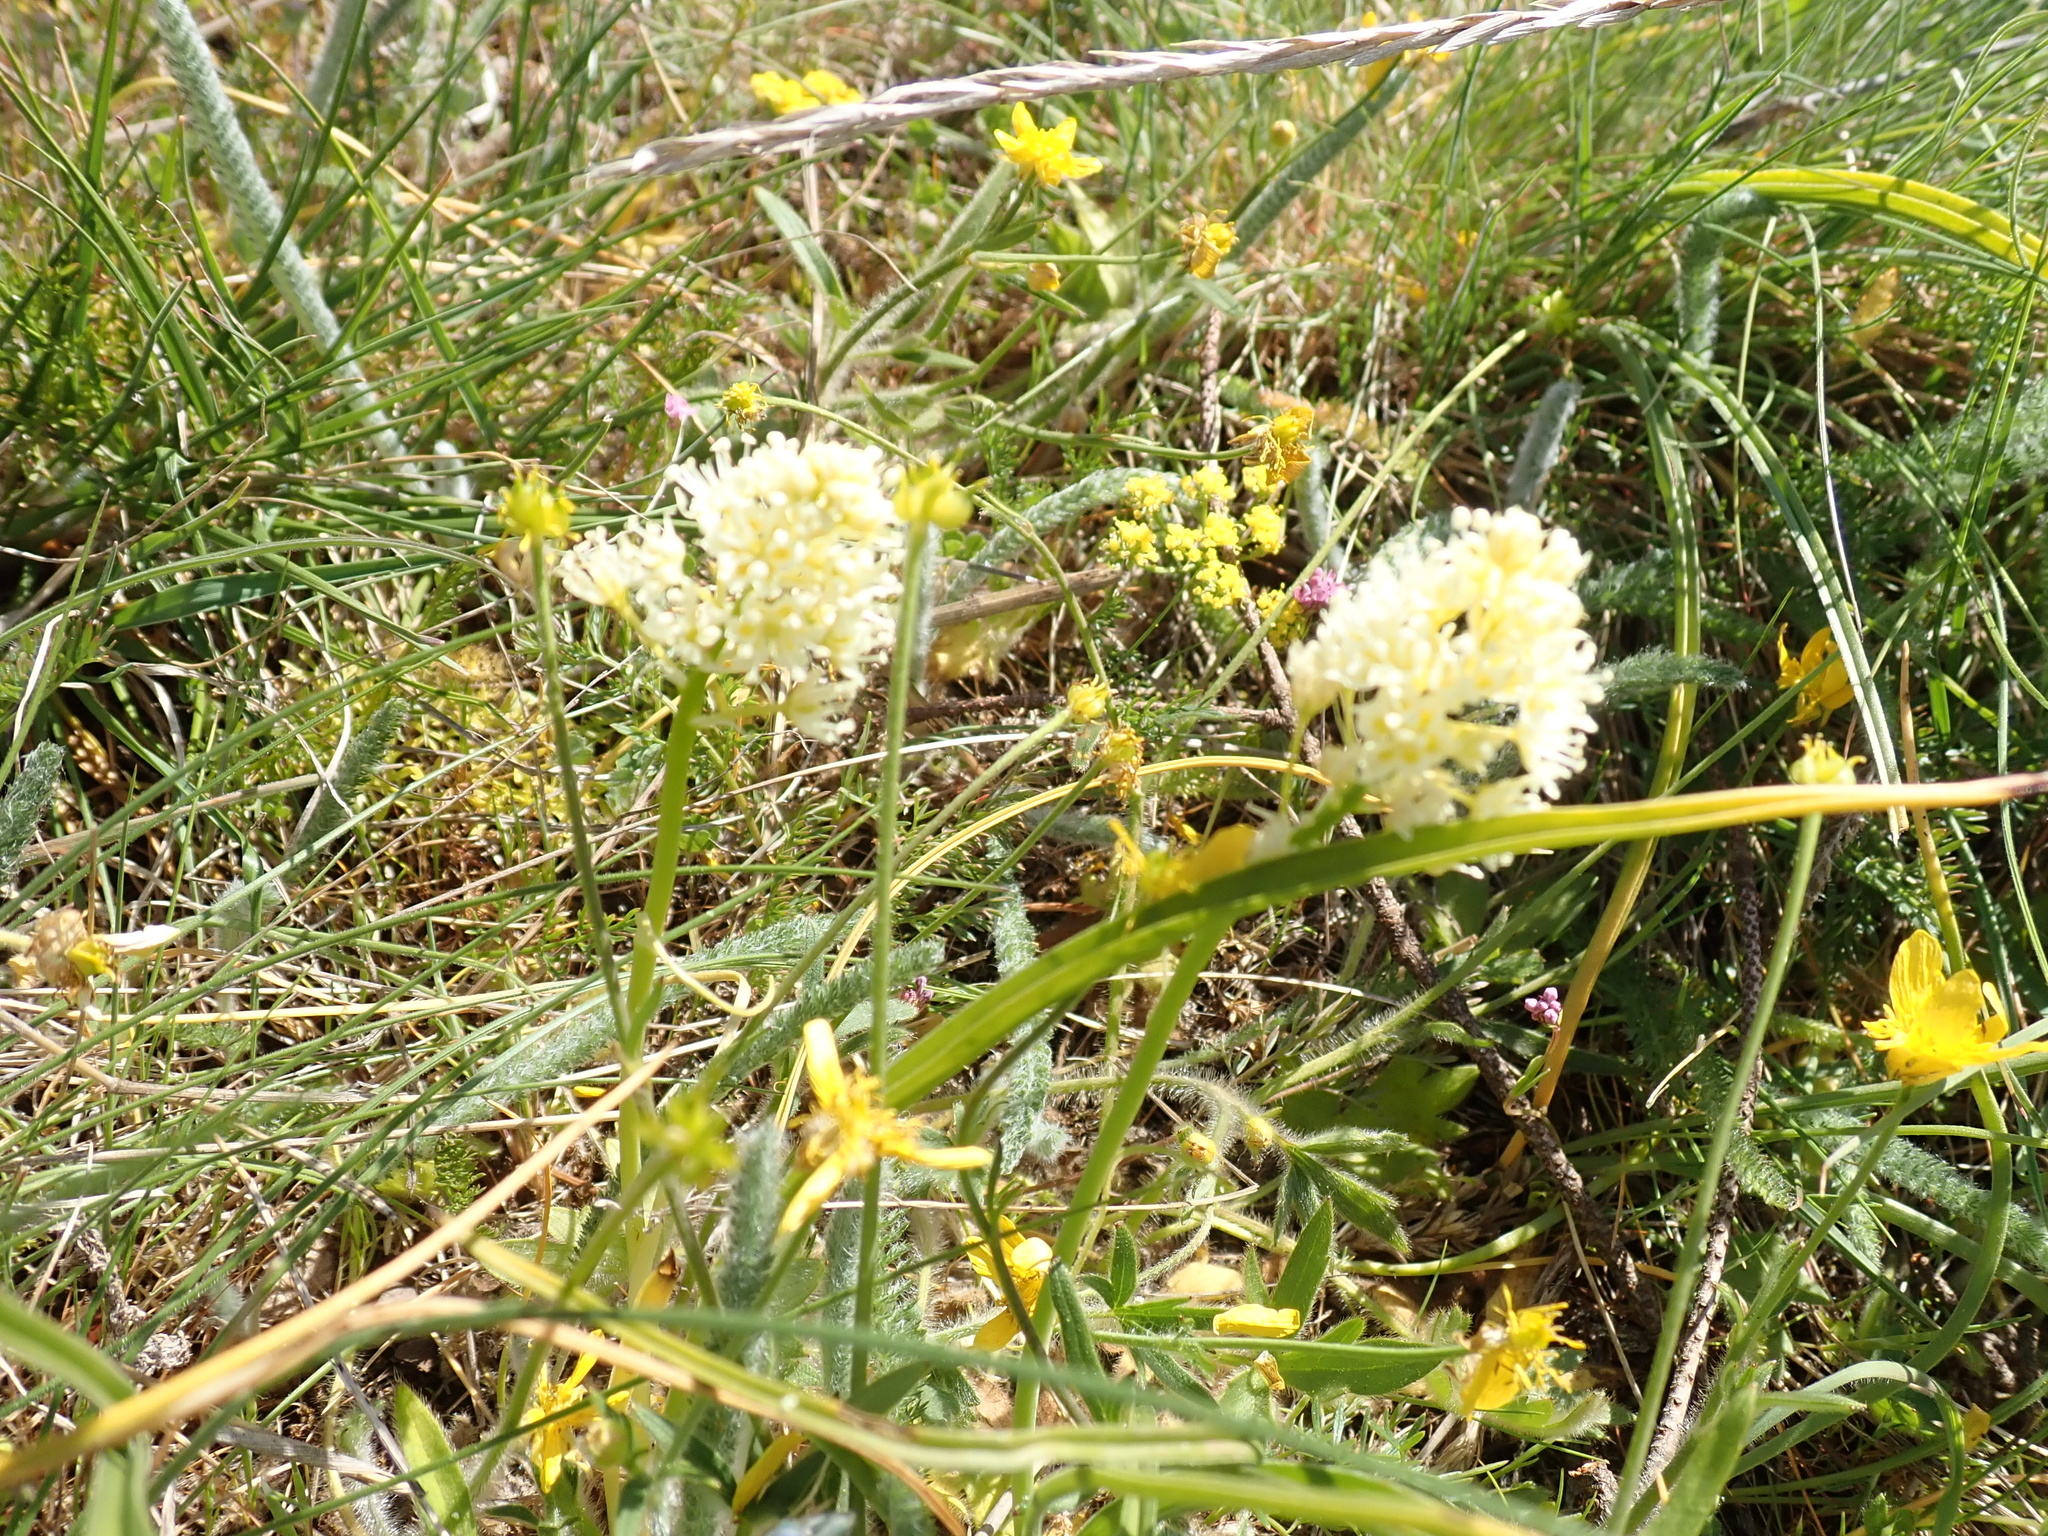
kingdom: Plantae
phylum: Tracheophyta
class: Liliopsida
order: Liliales
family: Melanthiaceae
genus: Toxicoscordion
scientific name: Toxicoscordion venenosum
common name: Meadow death camas
